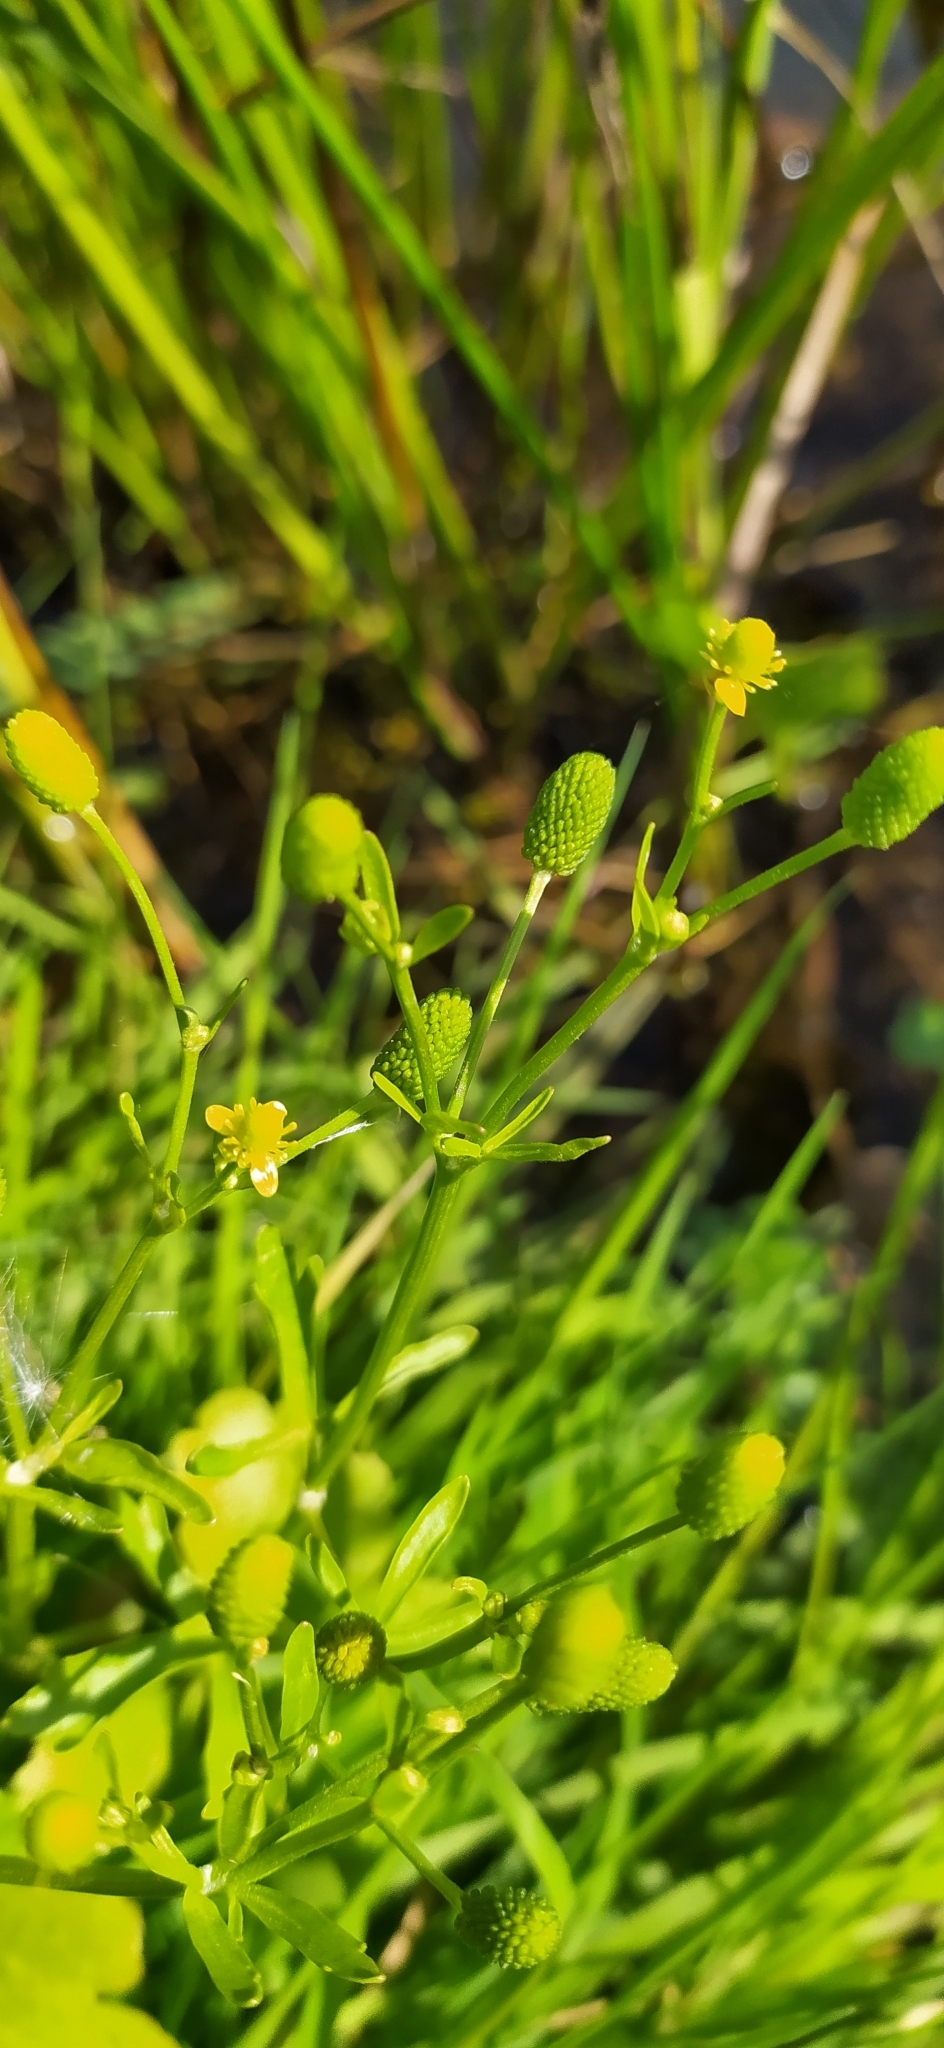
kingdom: Plantae
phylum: Tracheophyta
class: Magnoliopsida
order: Ranunculales
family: Ranunculaceae
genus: Ranunculus
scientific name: Ranunculus sceleratus
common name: Celery-leaved buttercup
